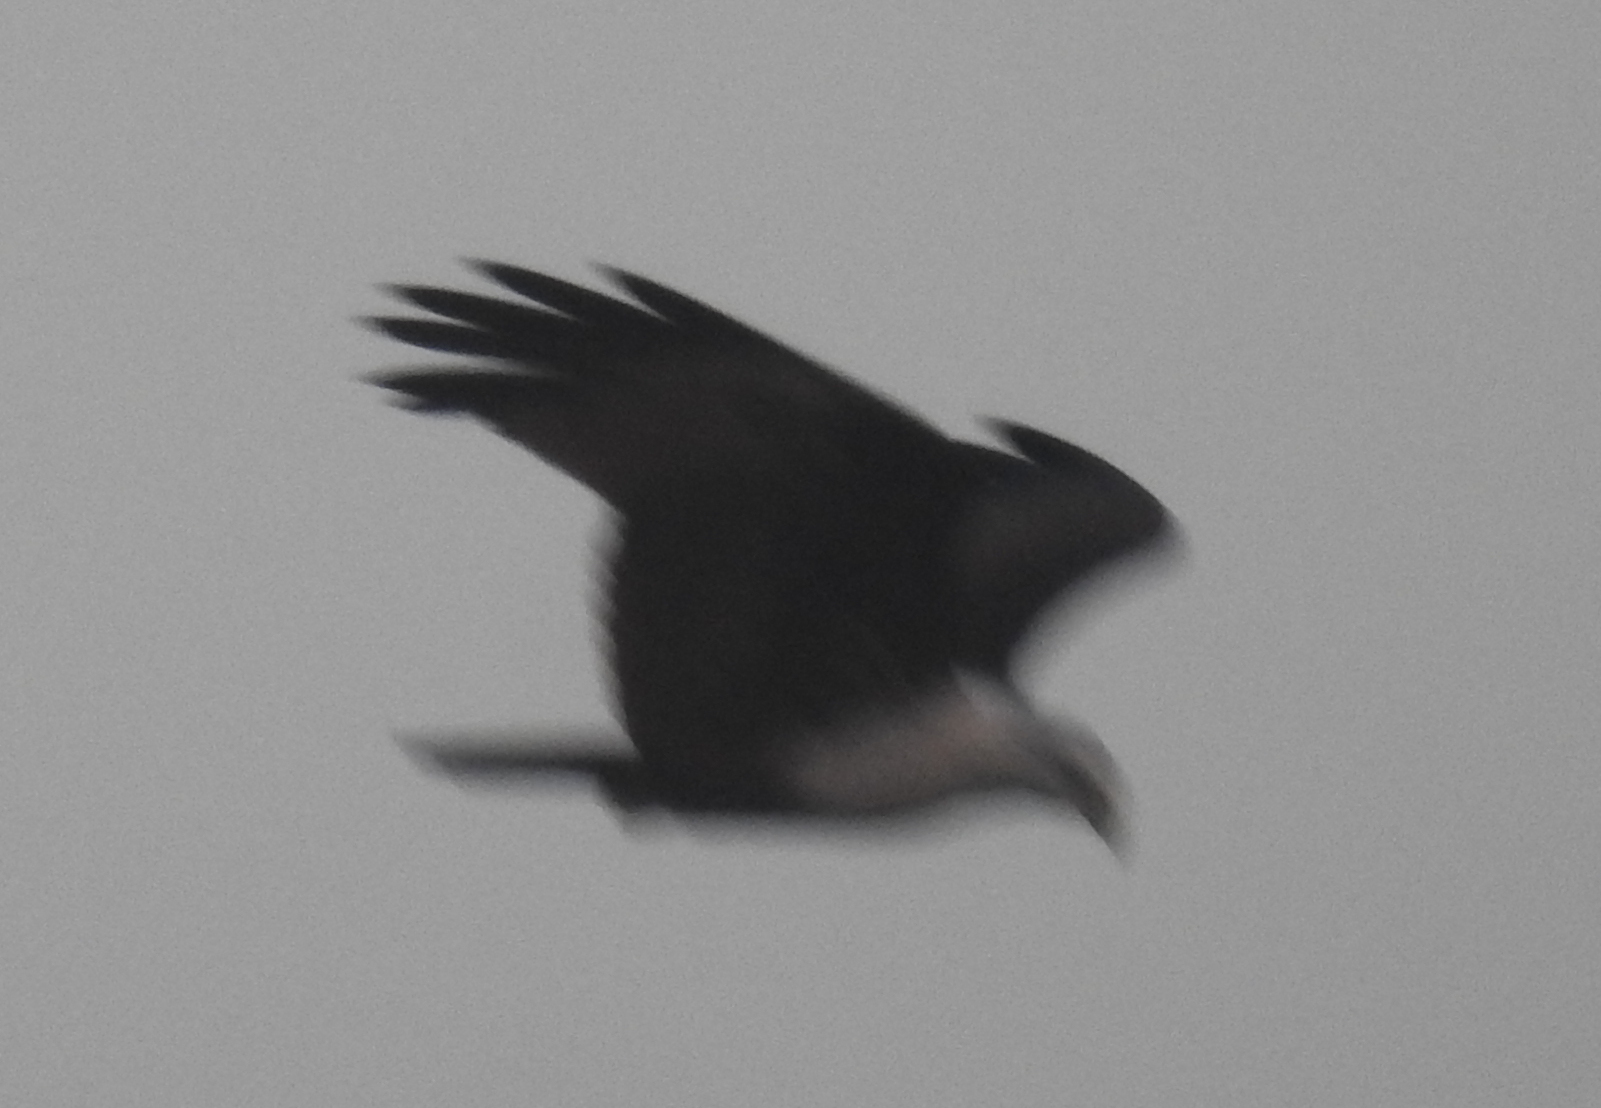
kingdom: Animalia
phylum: Chordata
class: Aves
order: Accipitriformes
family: Accipitridae
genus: Haliastur
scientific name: Haliastur indus
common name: Brahminy kite
